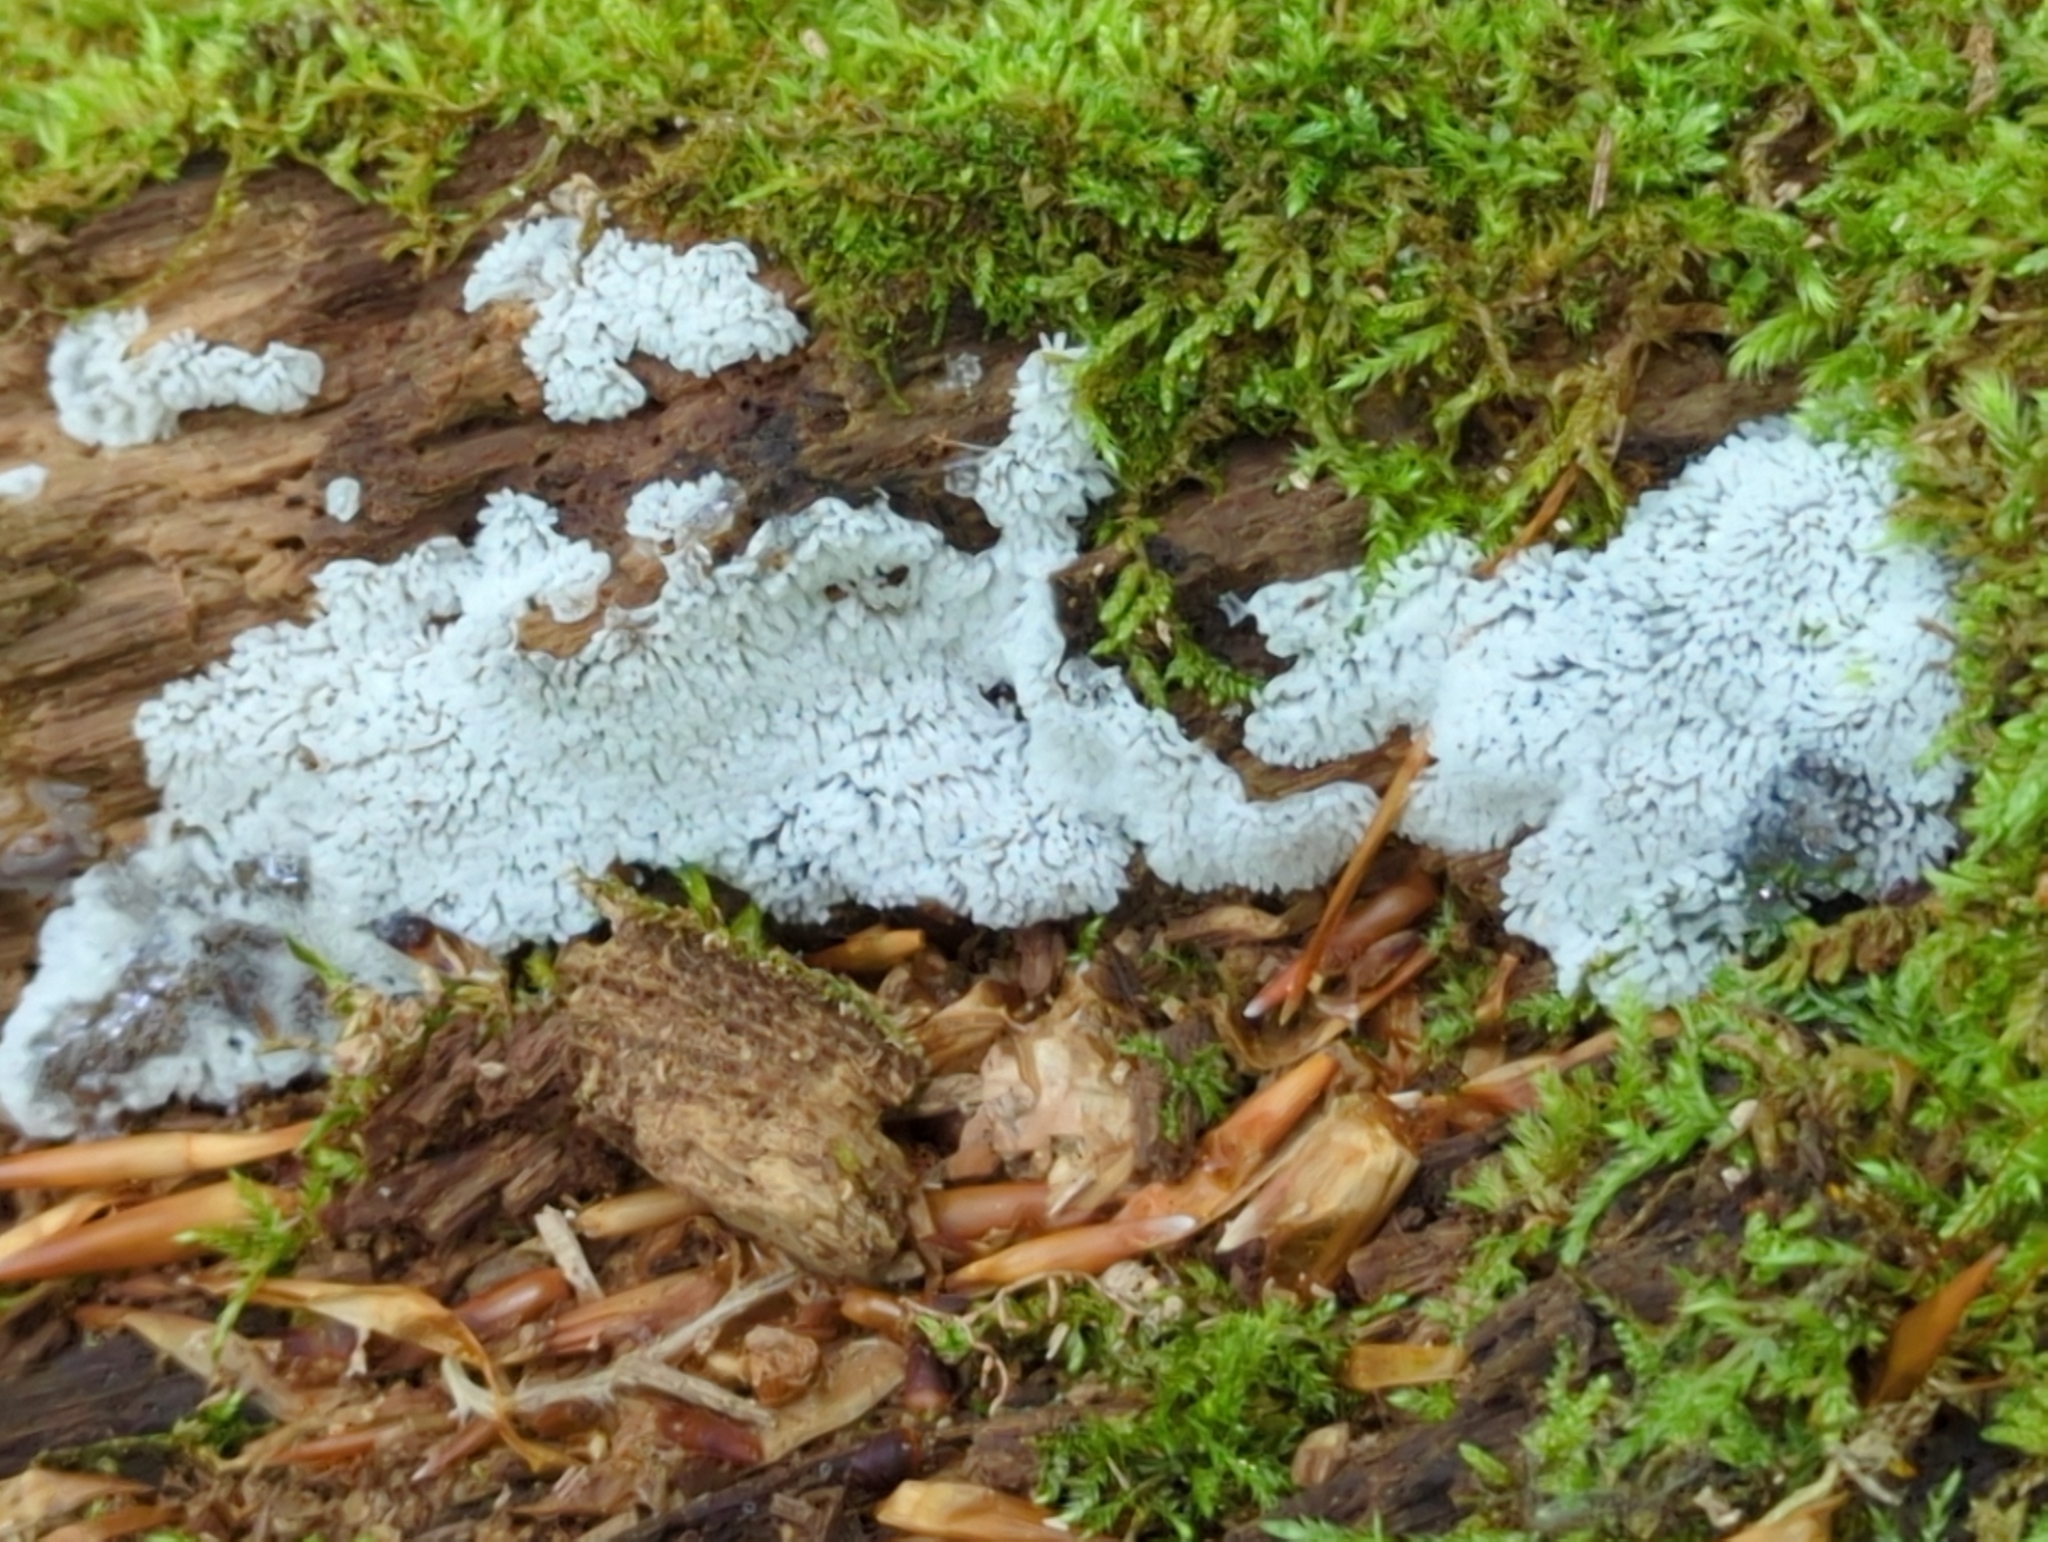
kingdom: Protozoa
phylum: Mycetozoa
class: Protosteliomycetes
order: Ceratiomyxales
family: Ceratiomyxaceae
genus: Ceratiomyxa
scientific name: Ceratiomyxa fruticulosa
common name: Honeycomb coral slime mold
